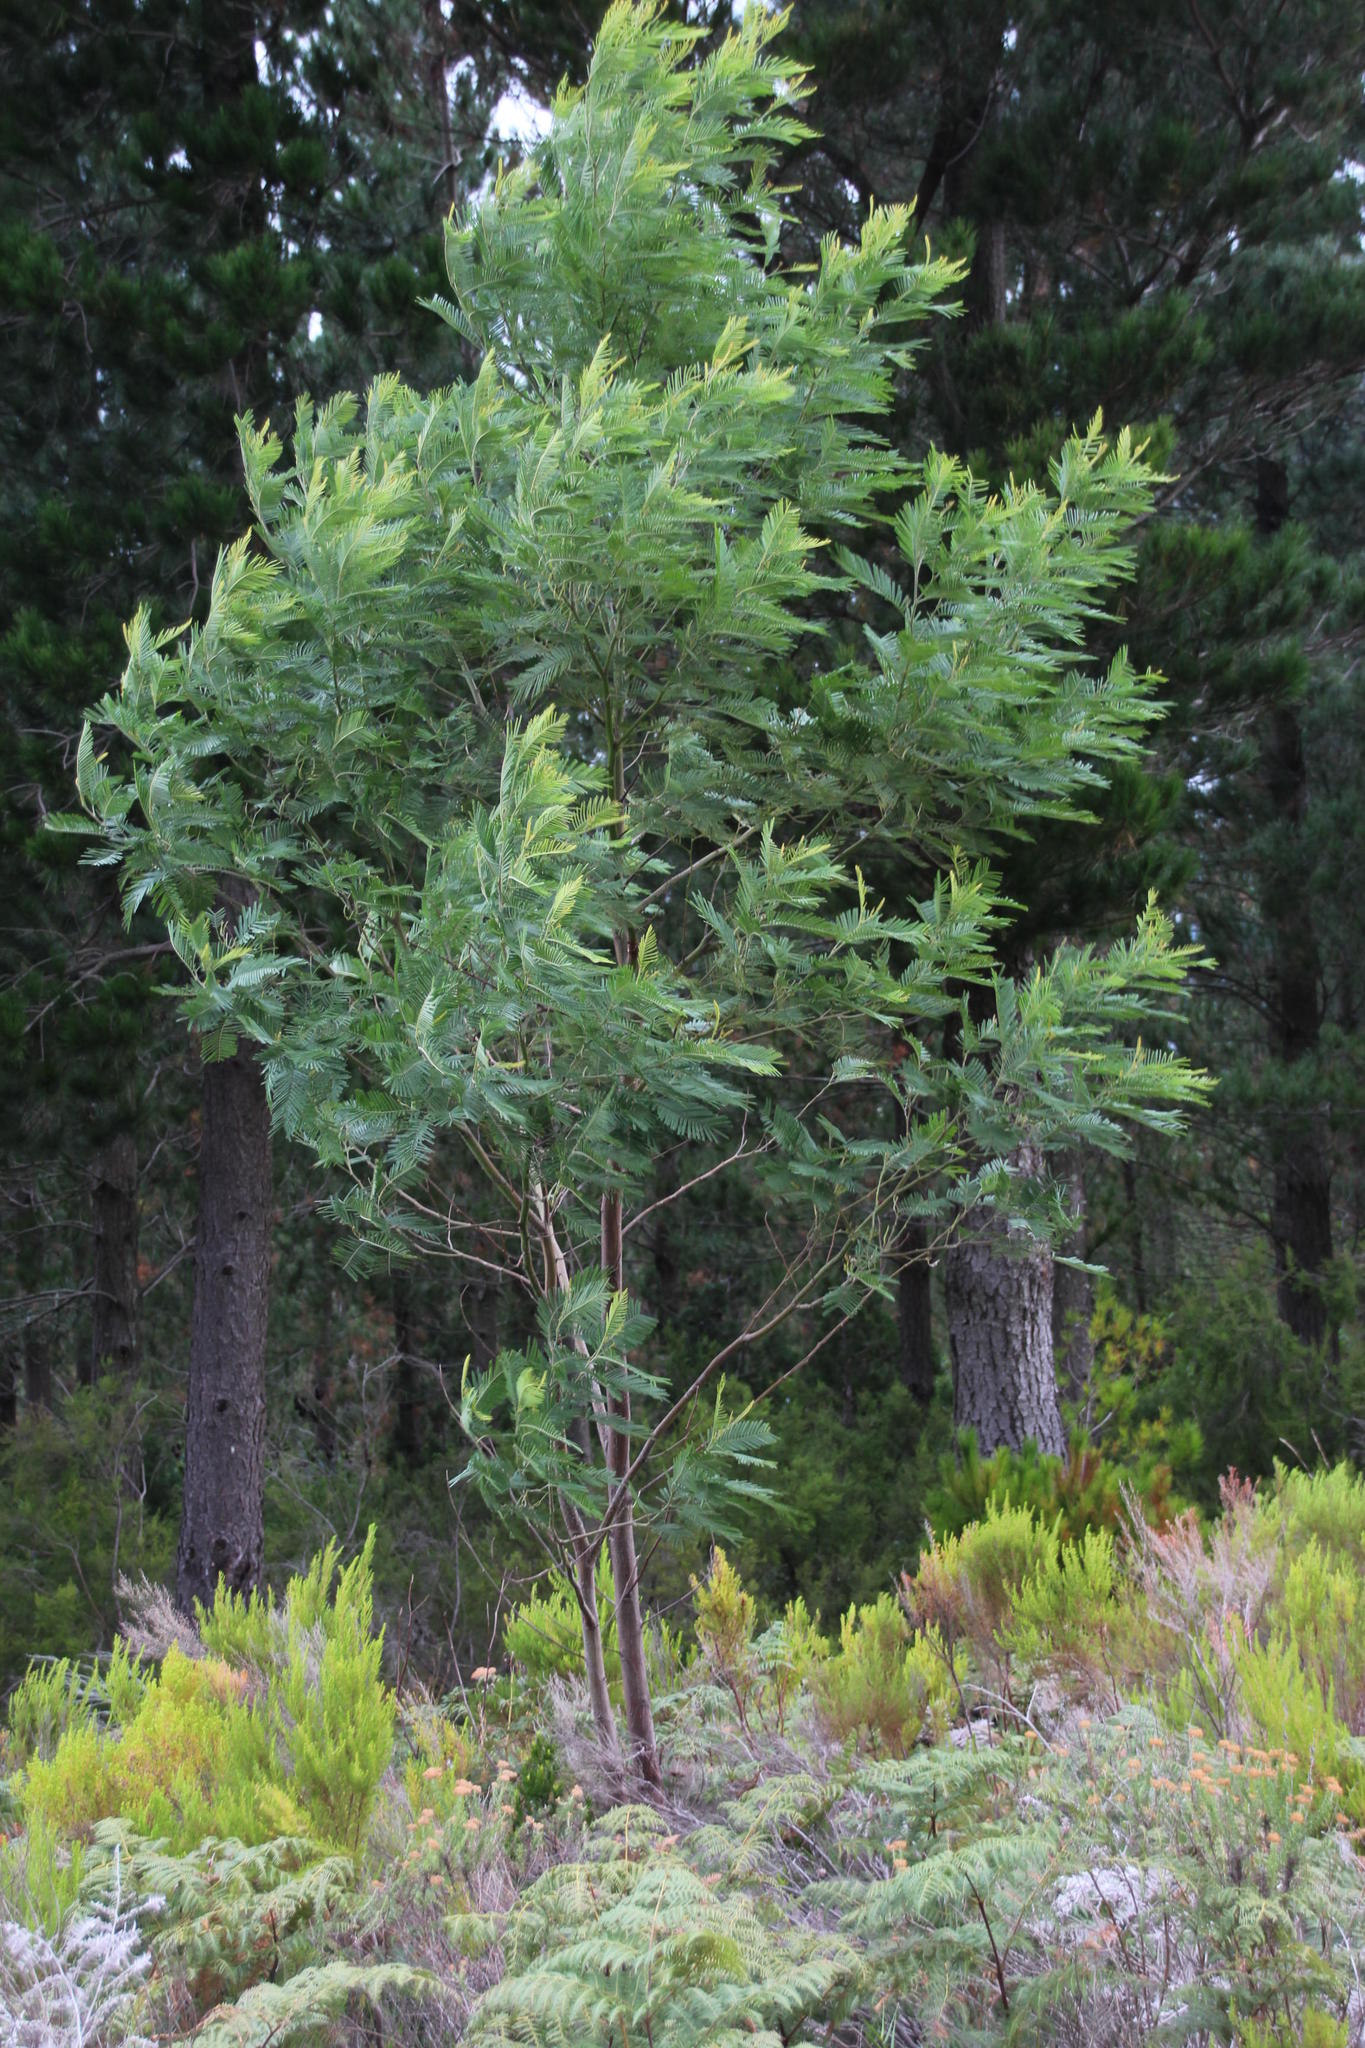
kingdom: Plantae
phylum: Tracheophyta
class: Magnoliopsida
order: Fabales
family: Fabaceae
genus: Acacia
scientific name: Acacia mearnsii
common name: Black wattle
